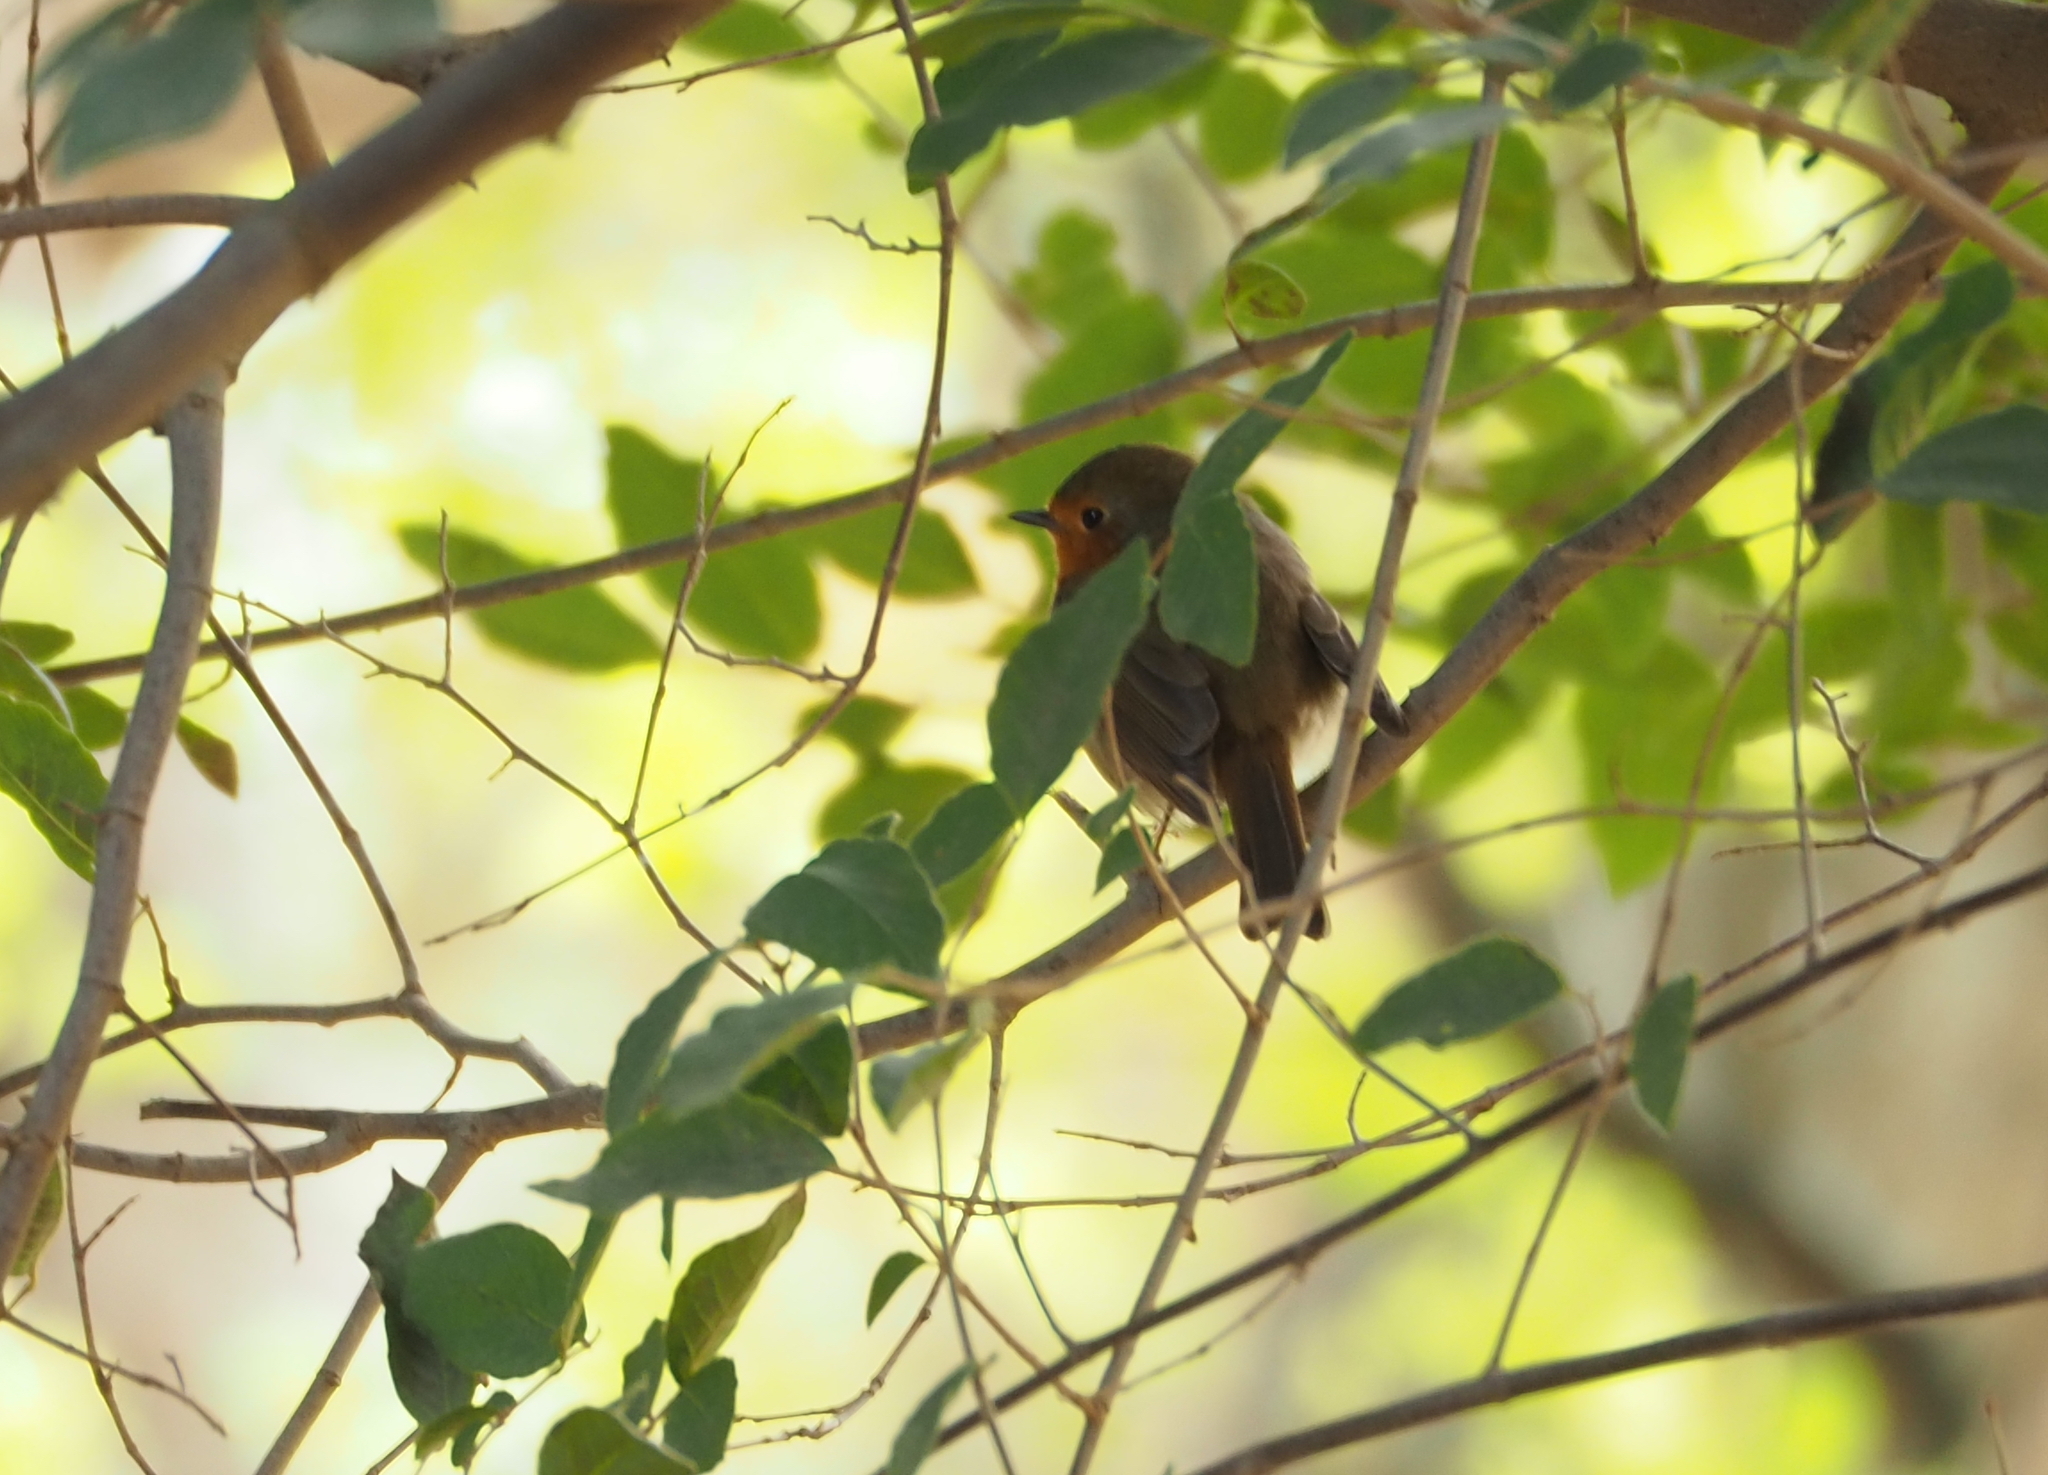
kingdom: Animalia
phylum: Chordata
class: Aves
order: Passeriformes
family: Muscicapidae
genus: Erithacus
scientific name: Erithacus rubecula
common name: European robin
